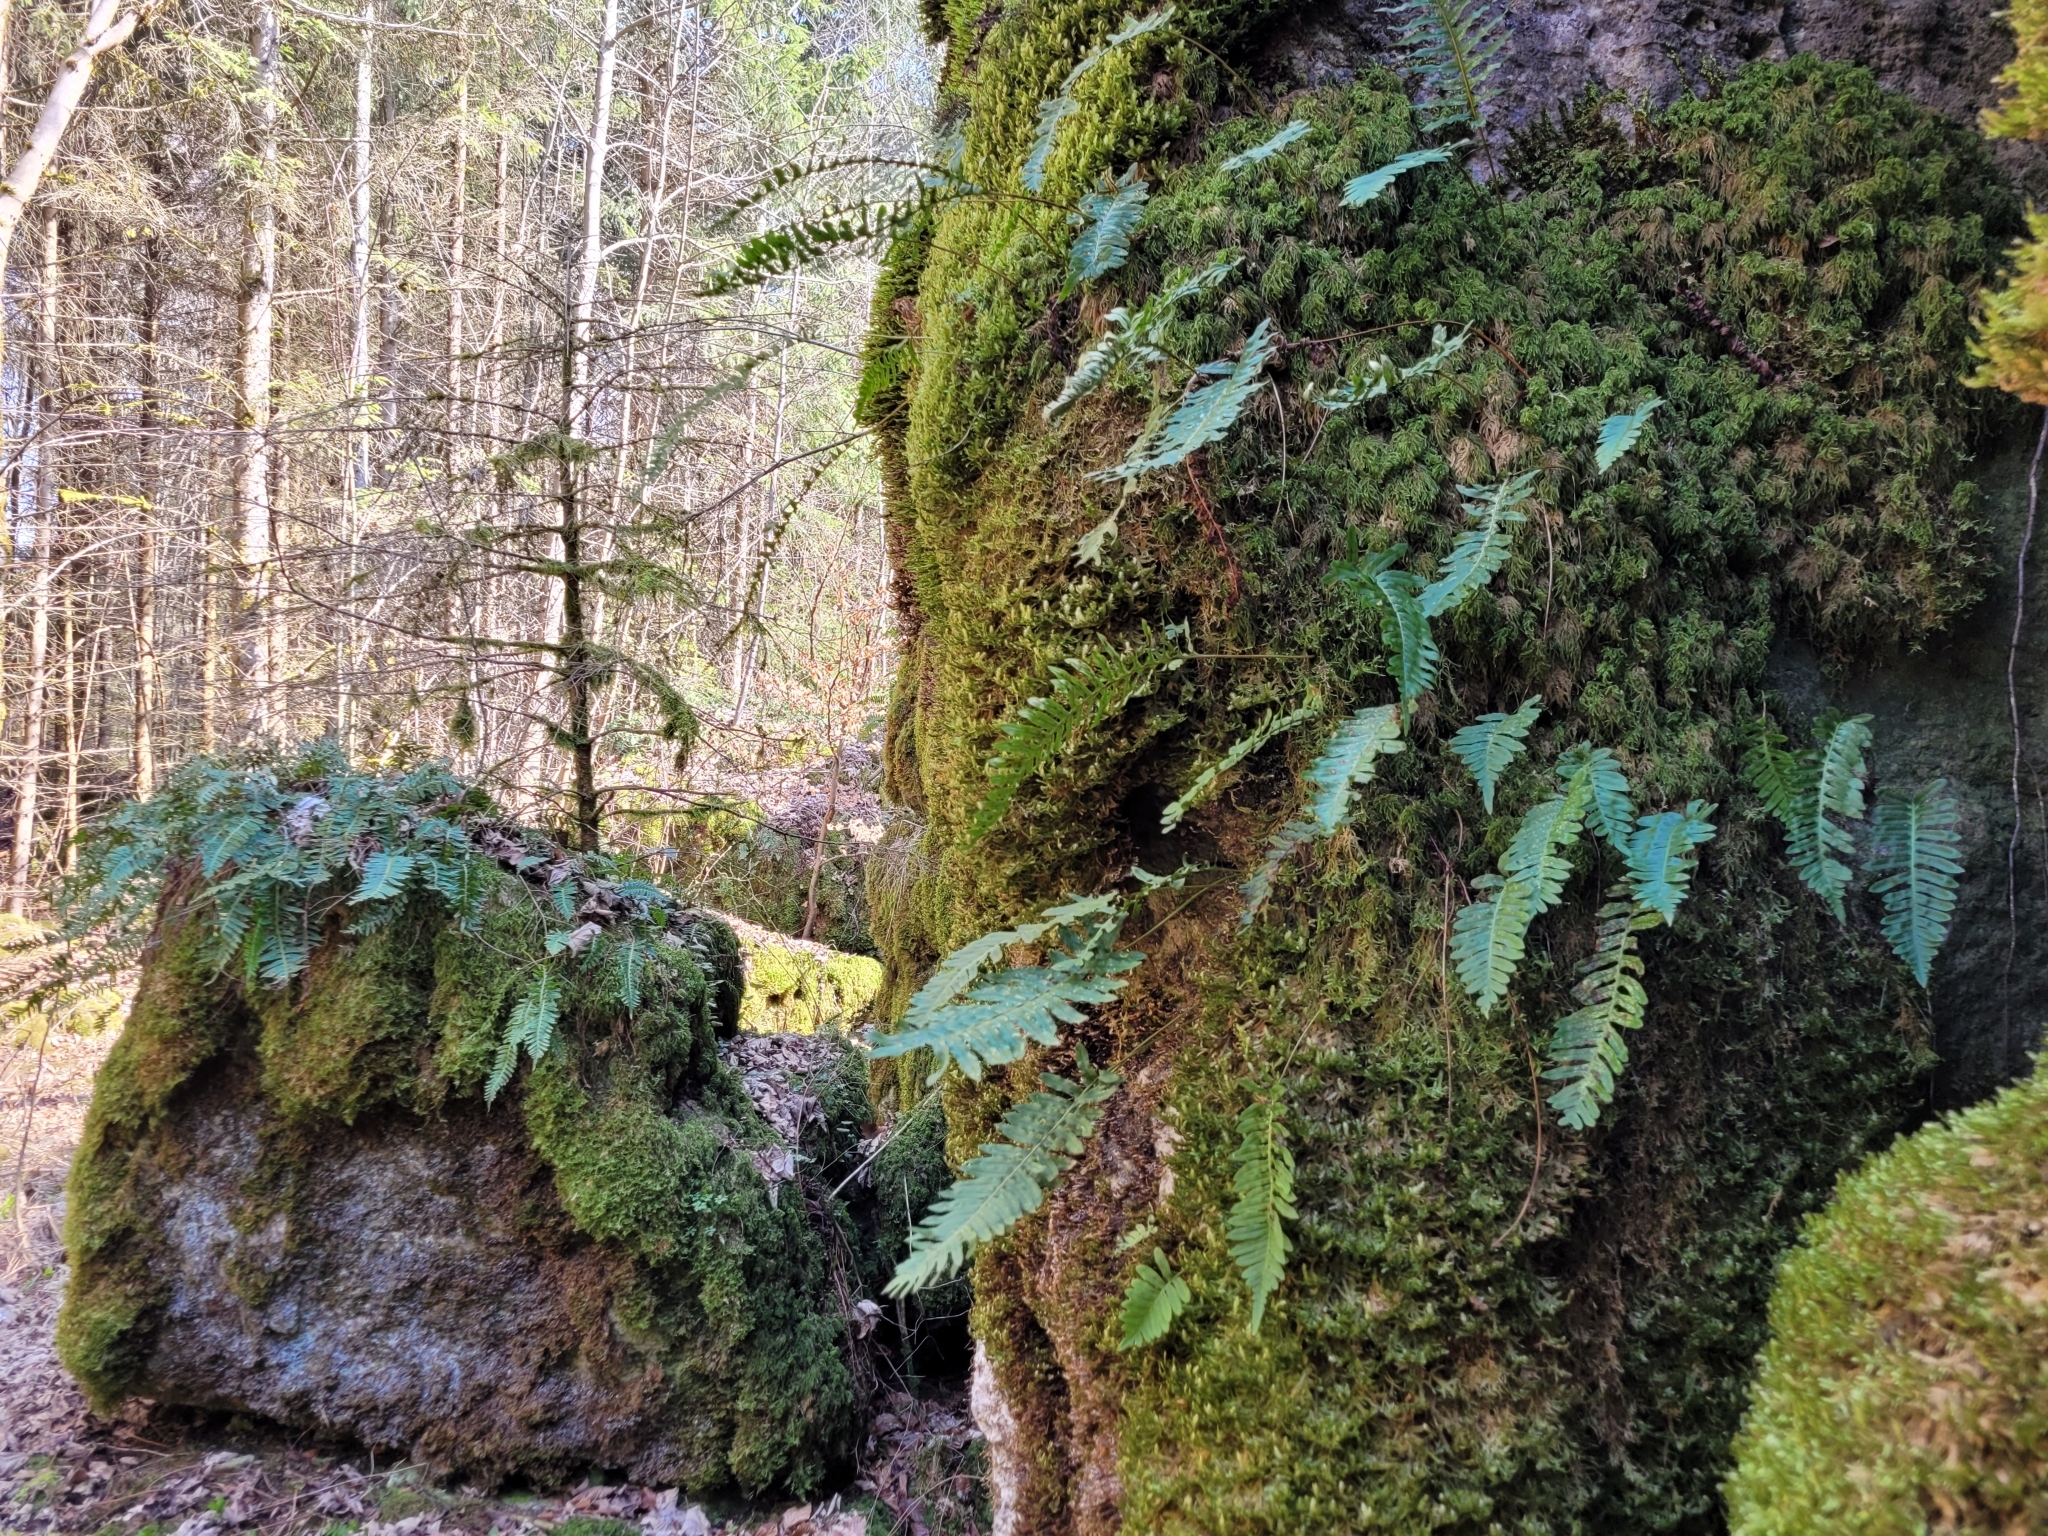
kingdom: Plantae
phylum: Tracheophyta
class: Polypodiopsida
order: Polypodiales
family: Polypodiaceae
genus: Polypodium
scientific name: Polypodium vulgare
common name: Common polypody
